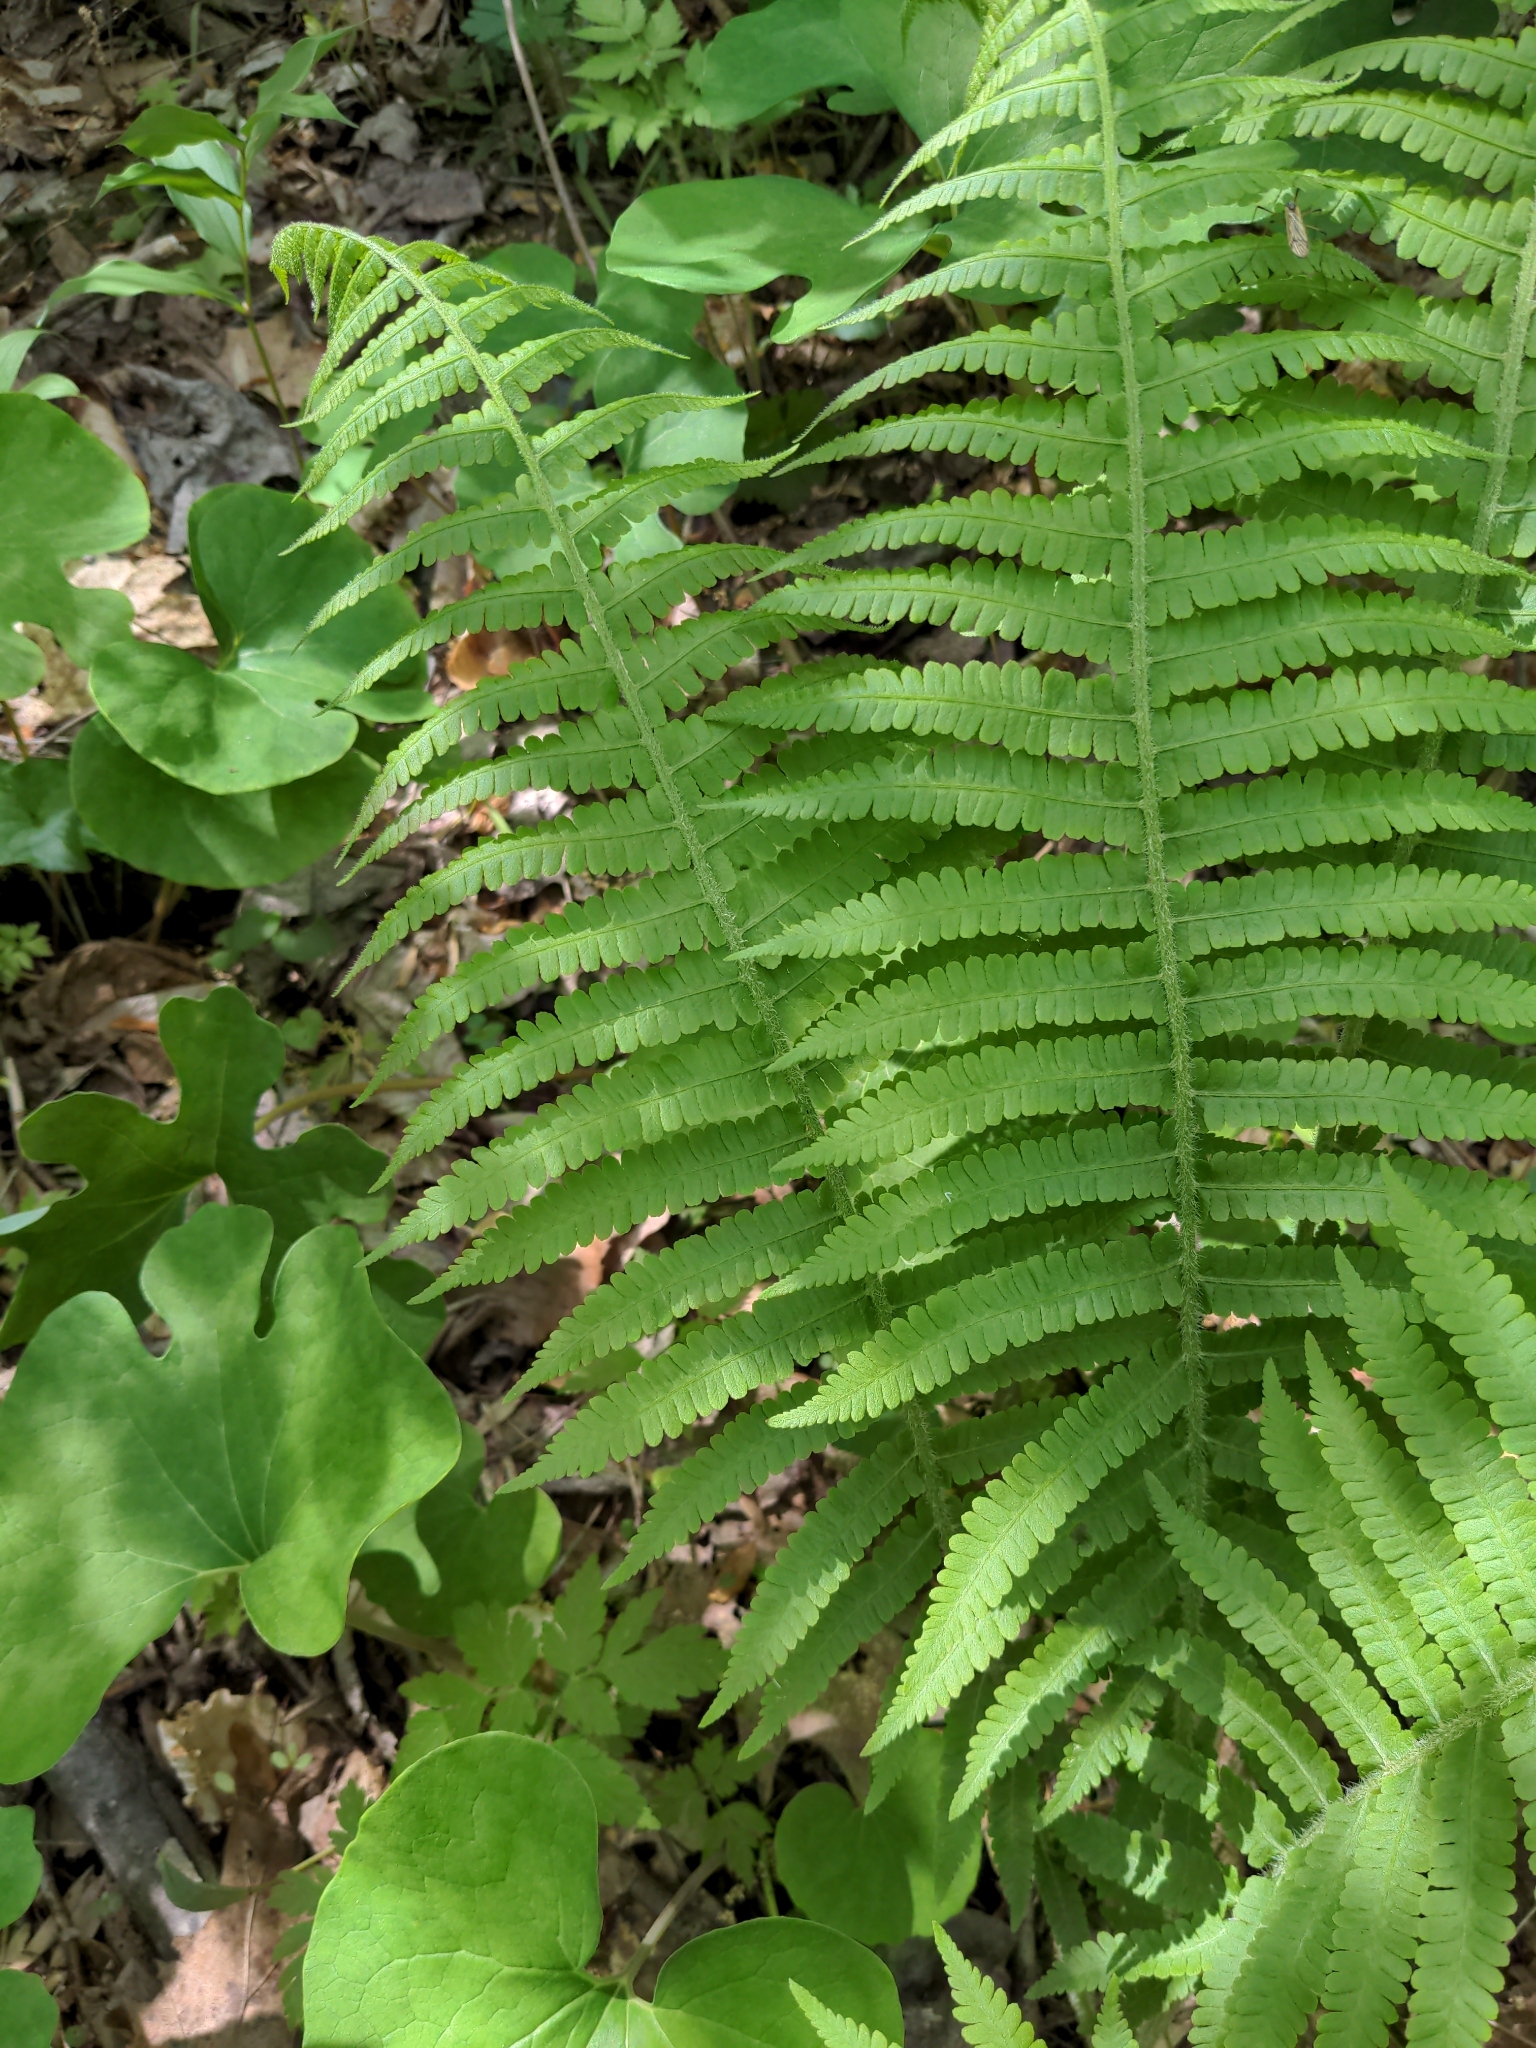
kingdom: Plantae
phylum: Tracheophyta
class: Polypodiopsida
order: Polypodiales
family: Athyriaceae
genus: Deparia
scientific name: Deparia acrostichoides
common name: Silver false spleenwort
